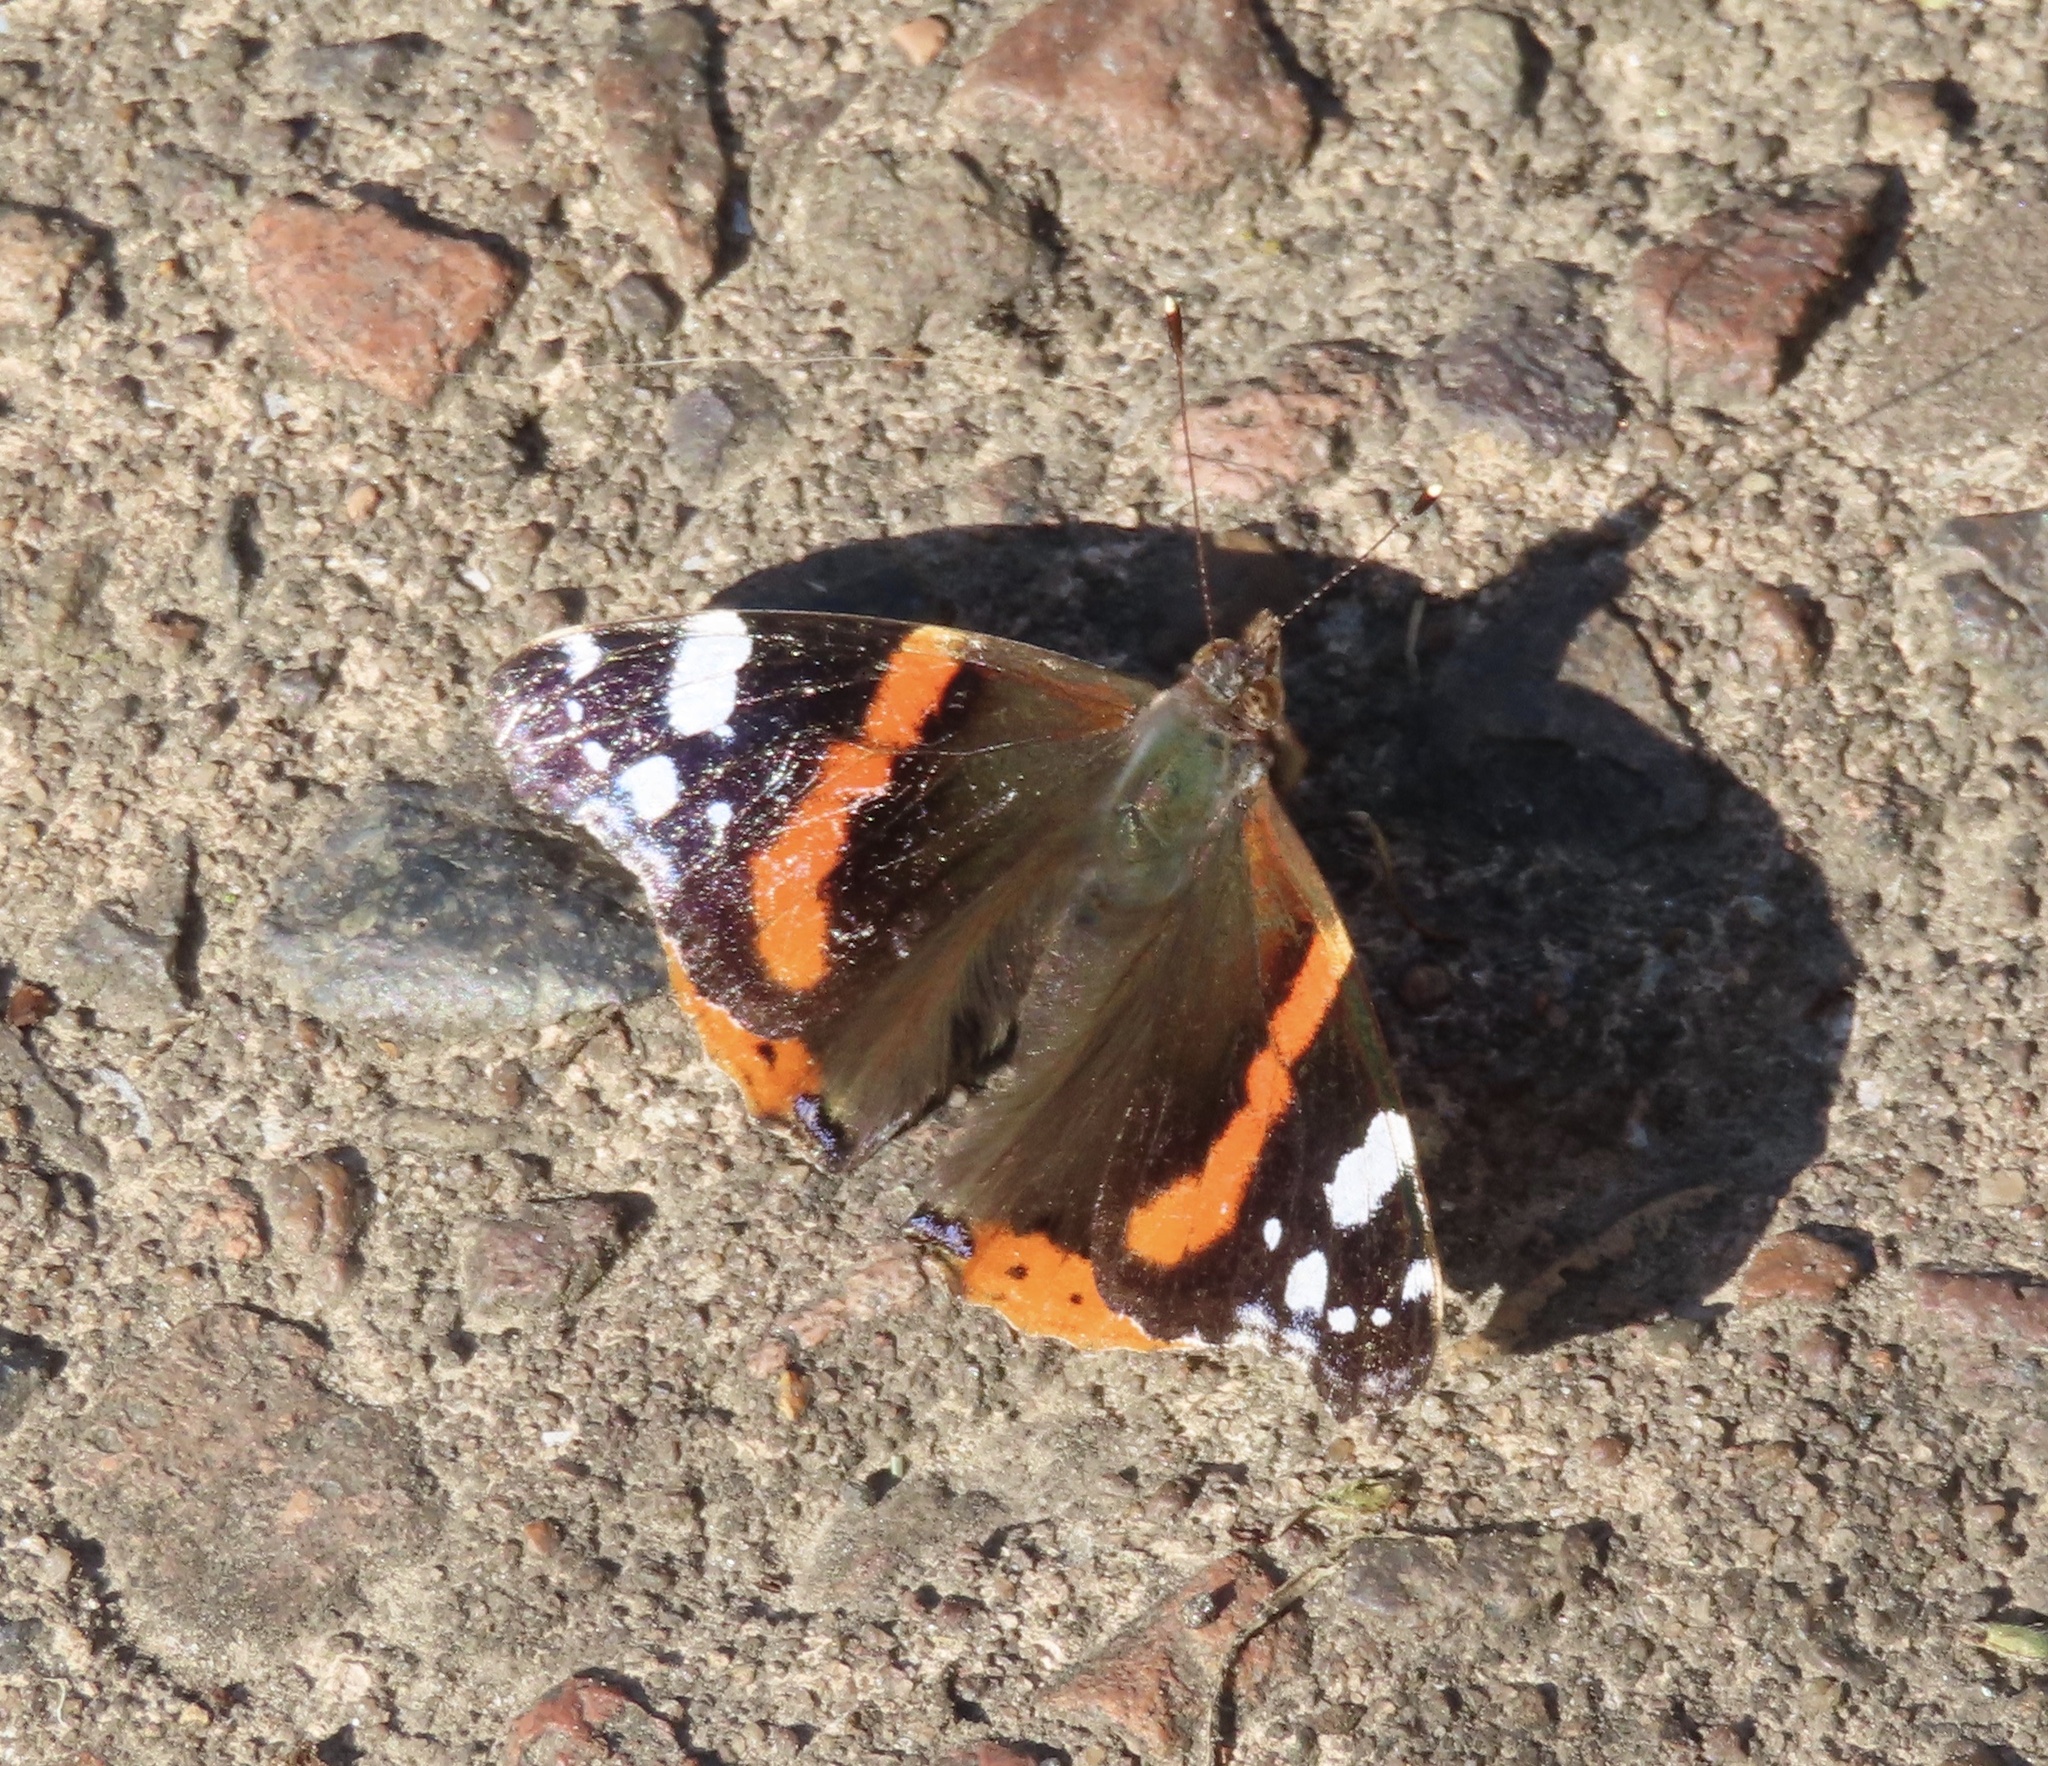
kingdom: Animalia
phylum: Arthropoda
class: Insecta
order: Lepidoptera
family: Nymphalidae
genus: Vanessa
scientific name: Vanessa atalanta
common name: Red admiral
